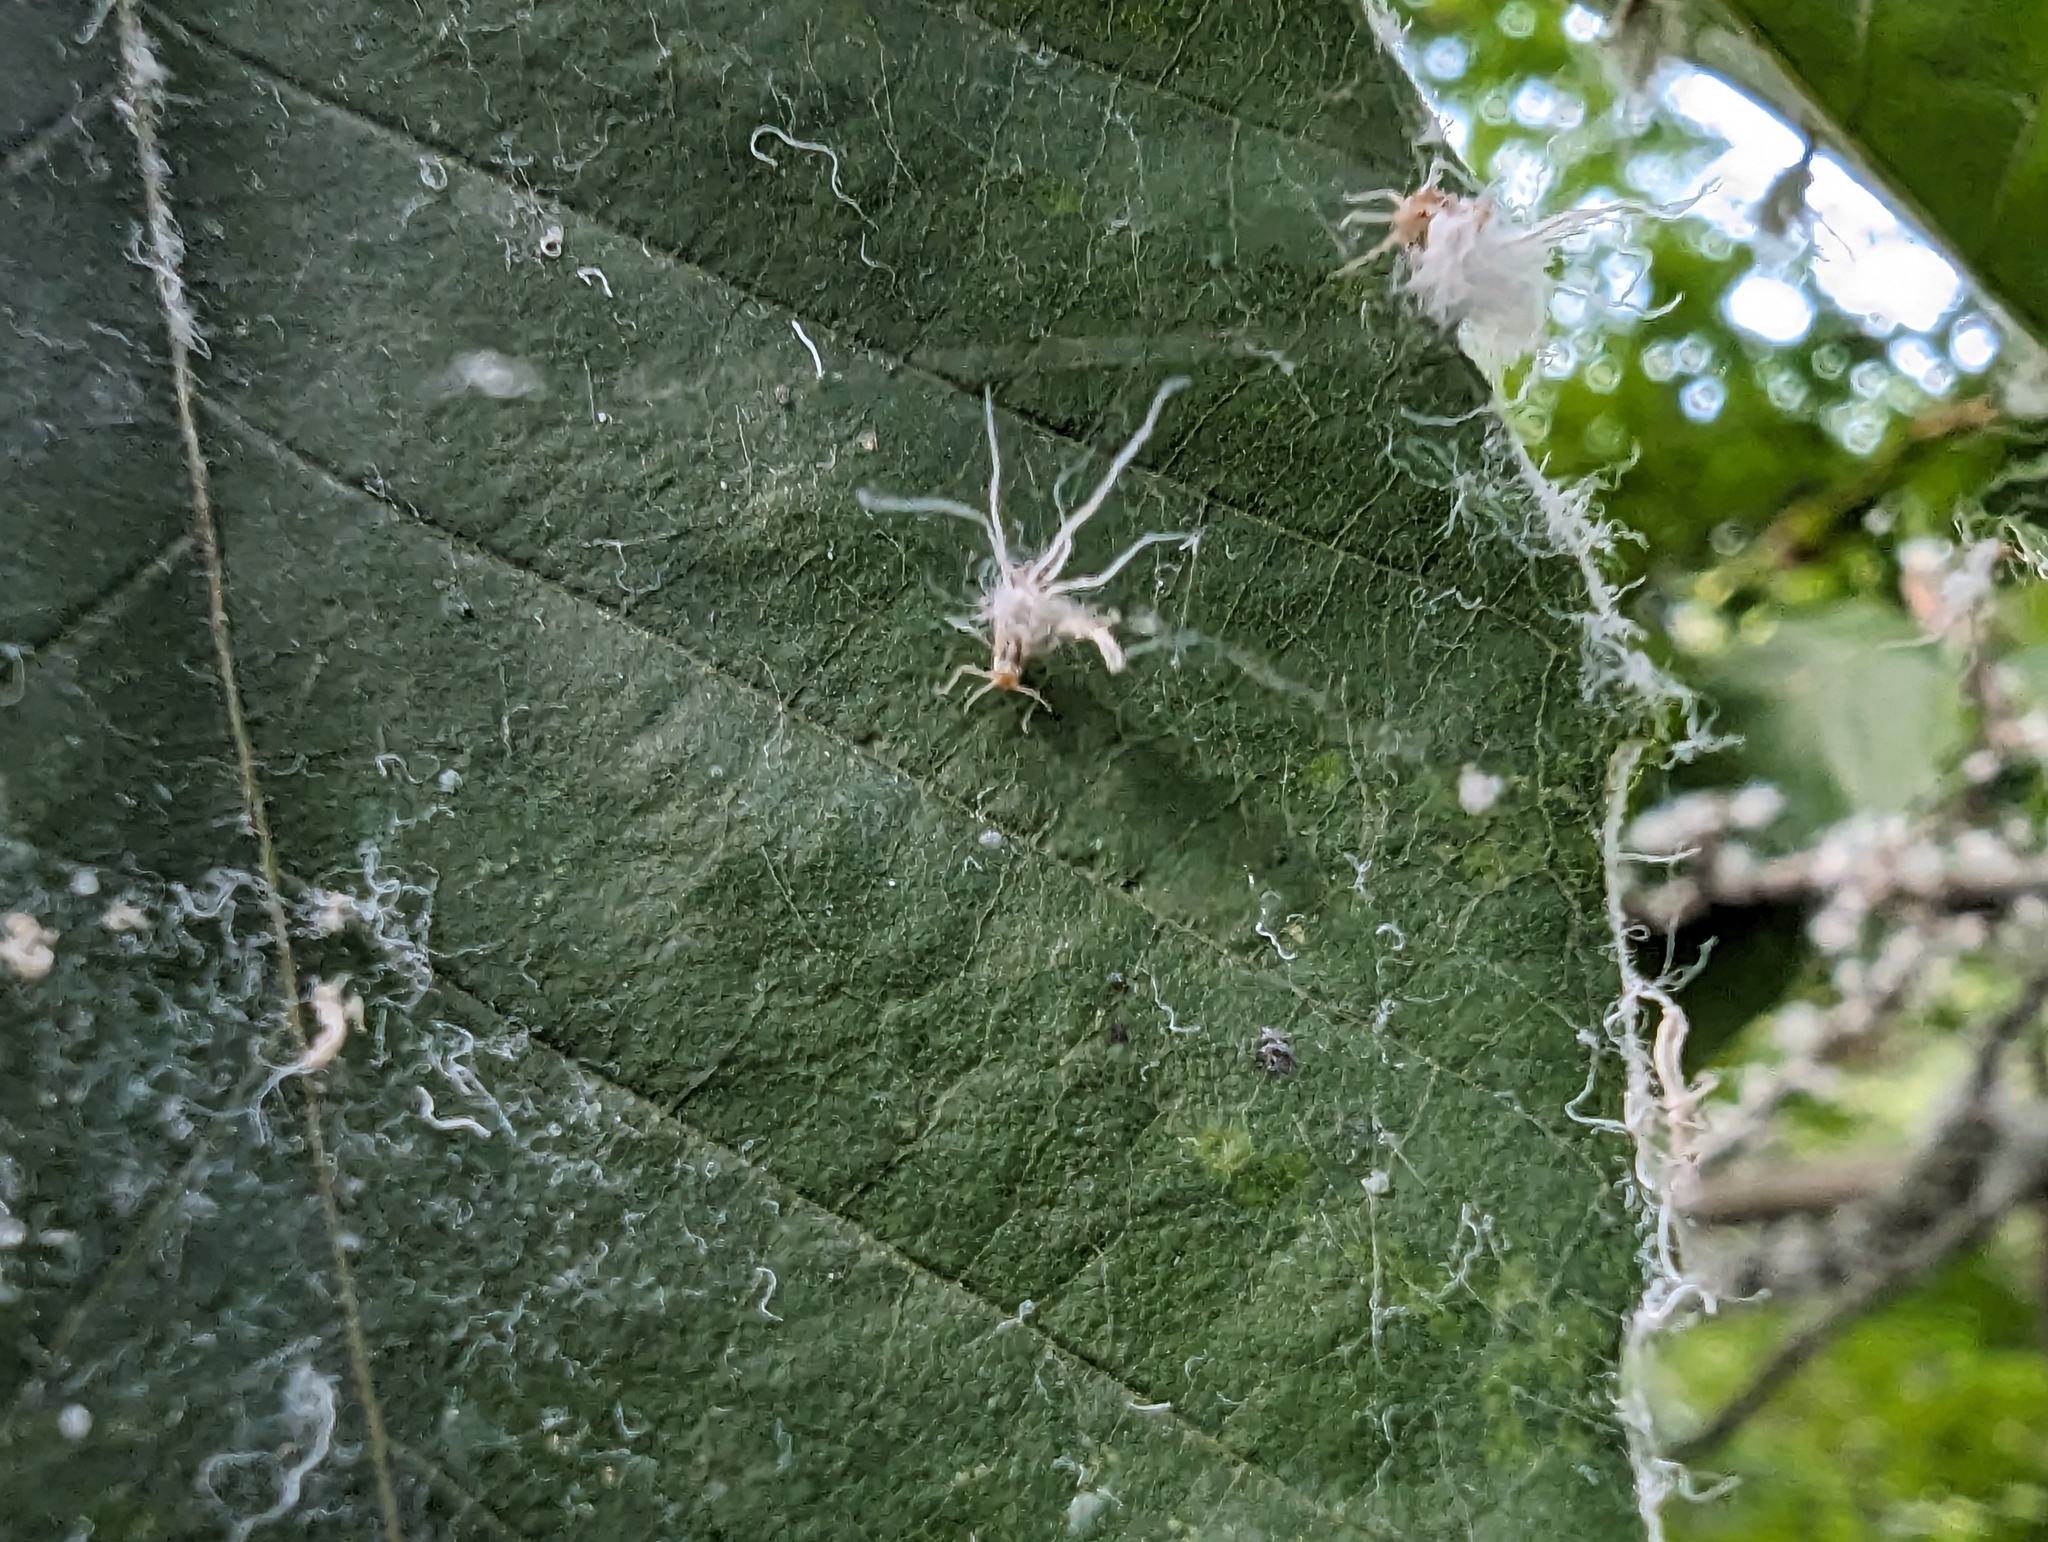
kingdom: Animalia
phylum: Arthropoda
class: Insecta
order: Hemiptera
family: Aphididae
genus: Grylloprociphilus
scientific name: Grylloprociphilus imbricator
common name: Beech blight aphid
